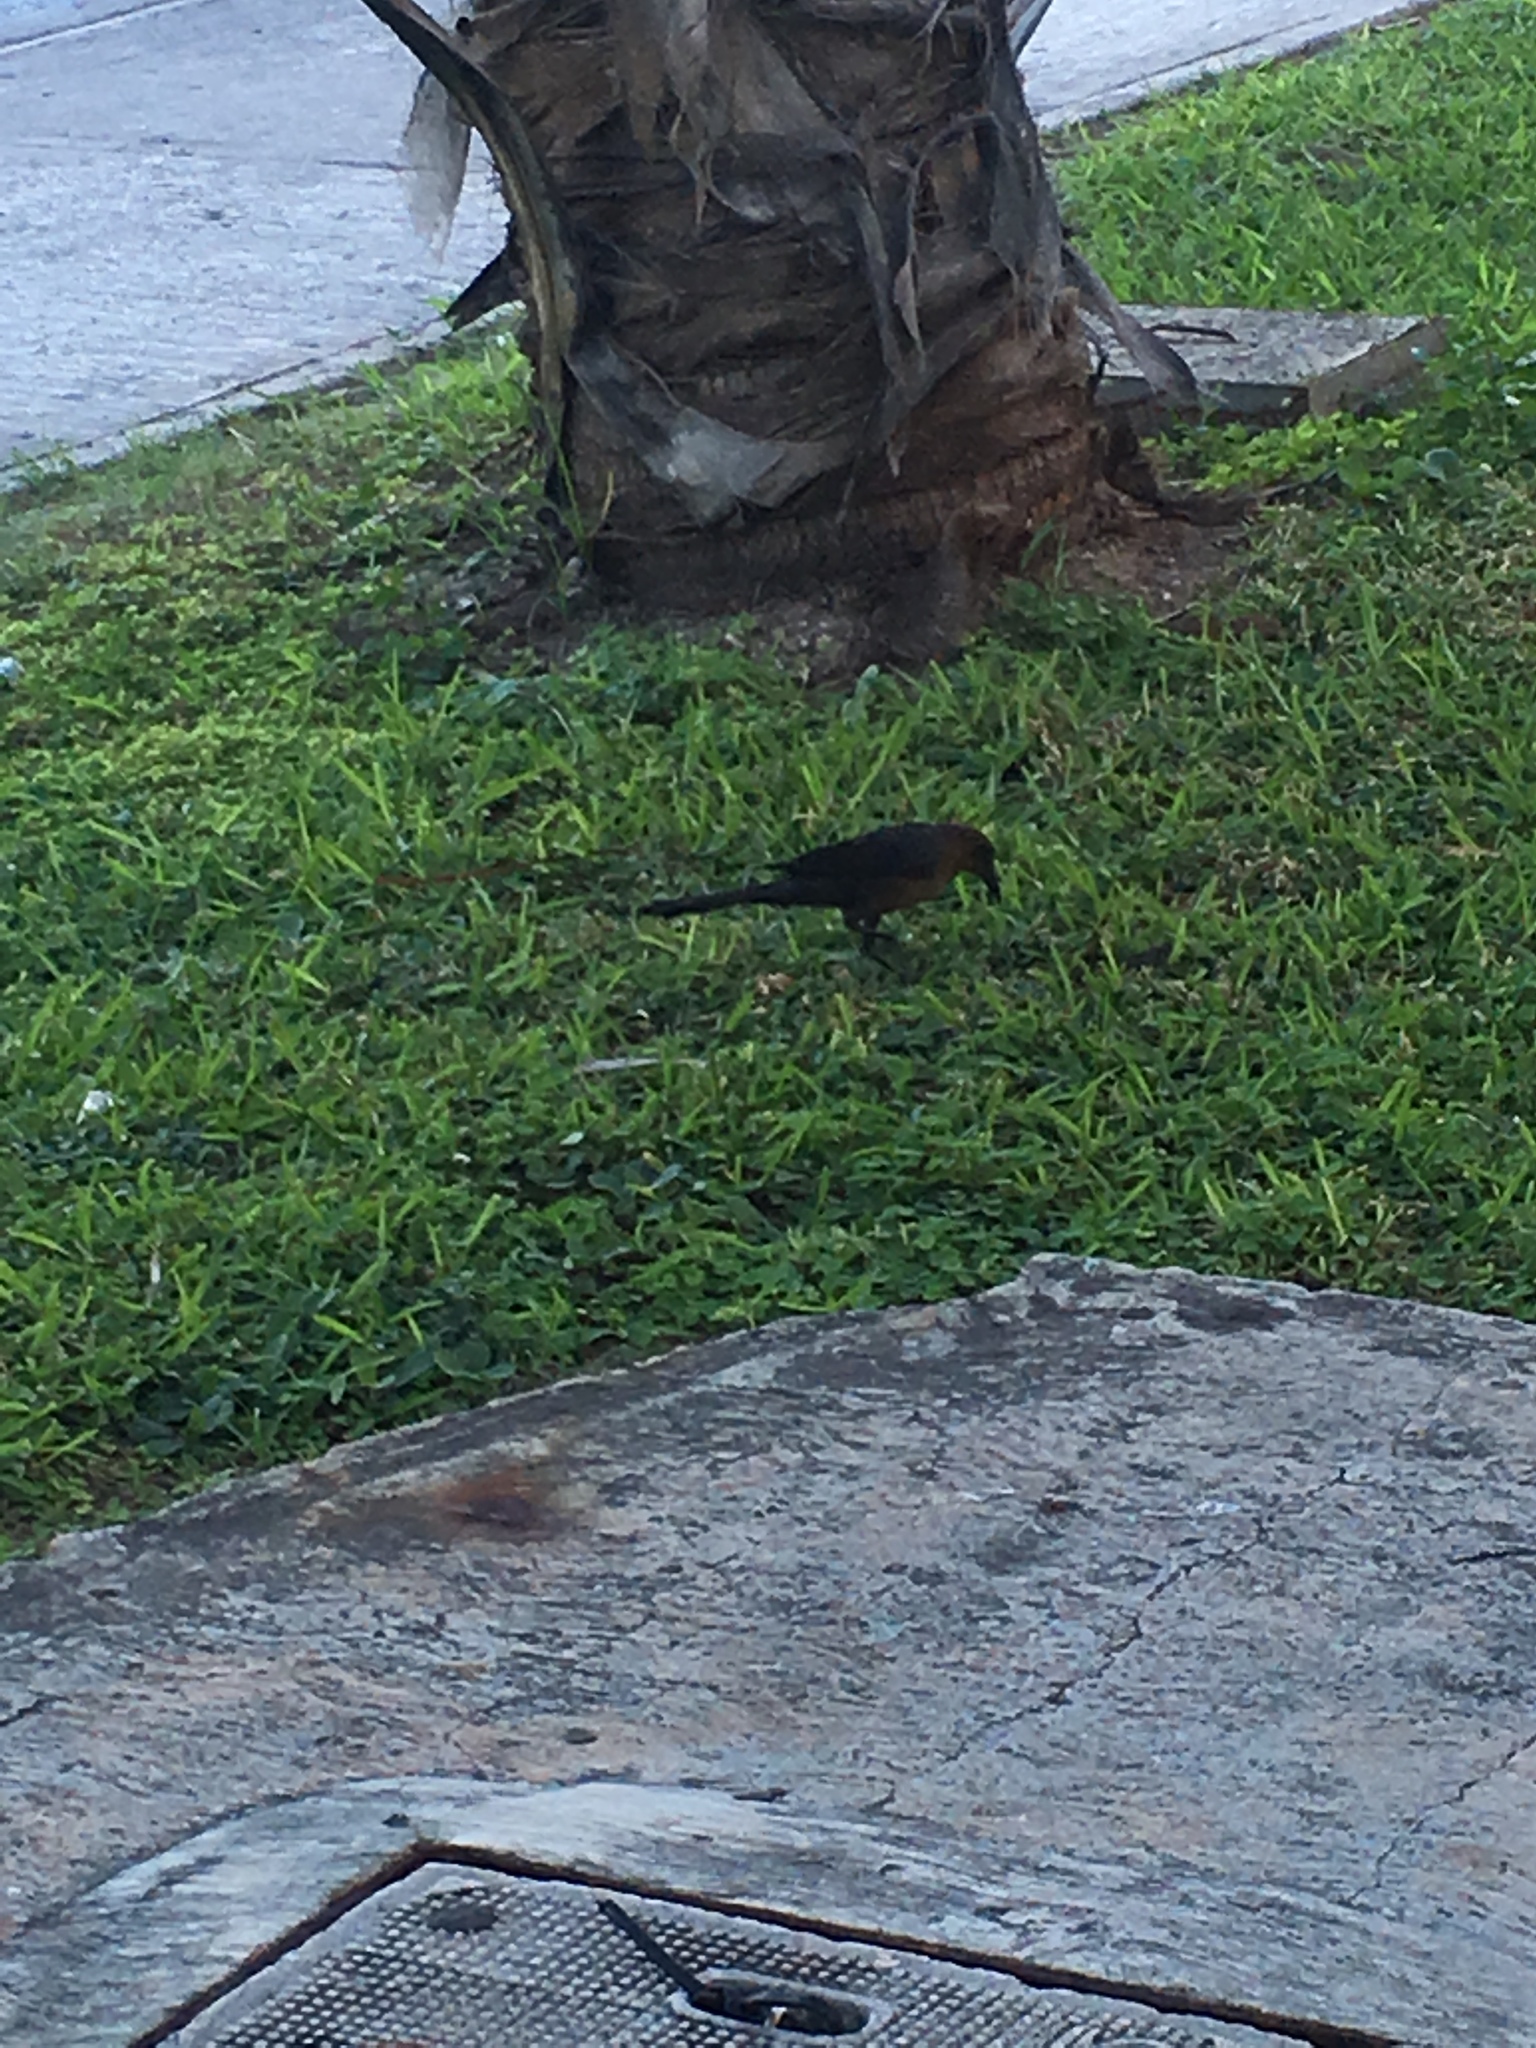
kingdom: Animalia
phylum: Chordata
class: Aves
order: Passeriformes
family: Icteridae
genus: Quiscalus
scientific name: Quiscalus mexicanus
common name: Great-tailed grackle
